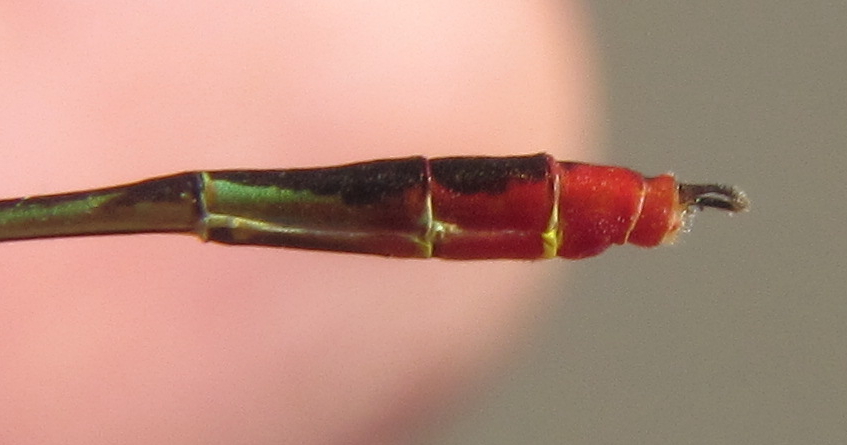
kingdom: Animalia
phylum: Arthropoda
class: Insecta
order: Odonata
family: Coenagrionidae
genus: Agriocnemis
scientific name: Agriocnemis victoria
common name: Lesser pincer-tailed wisp
